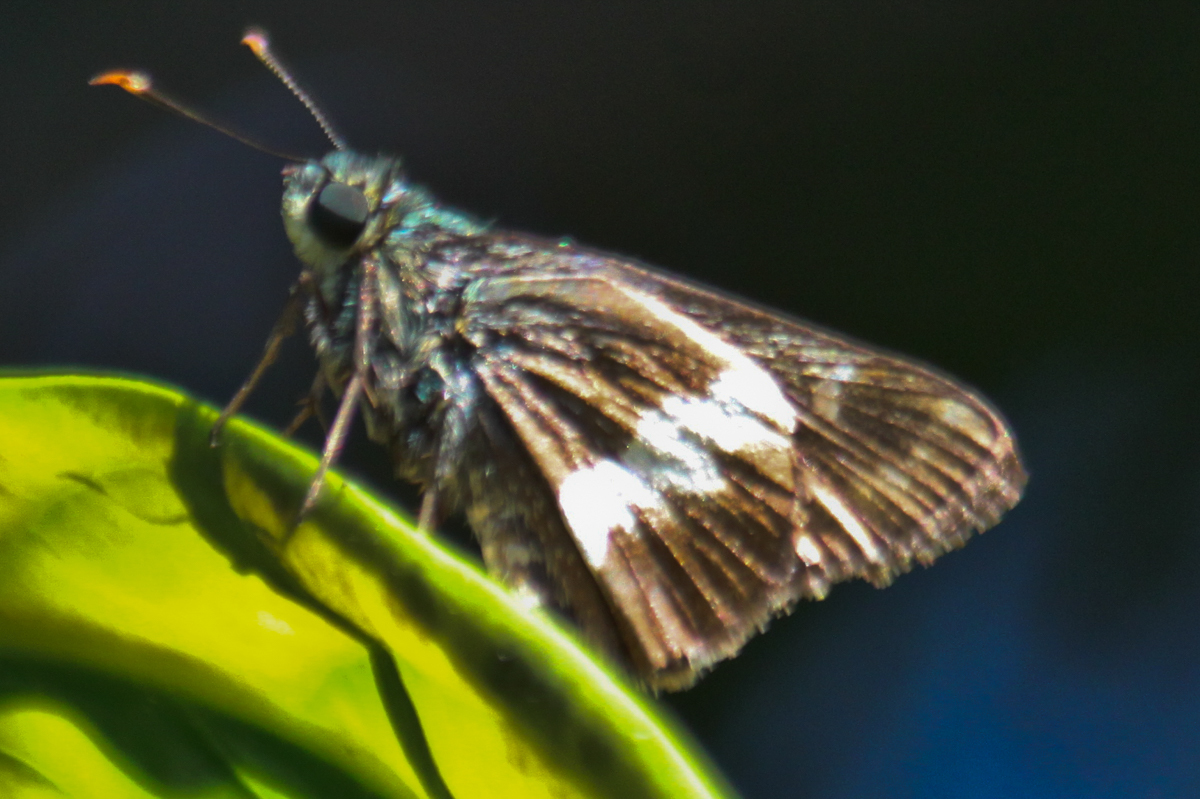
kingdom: Animalia
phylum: Arthropoda
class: Insecta
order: Lepidoptera
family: Hesperiidae
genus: Halpe
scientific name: Halpe zola
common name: Long-banded ace
